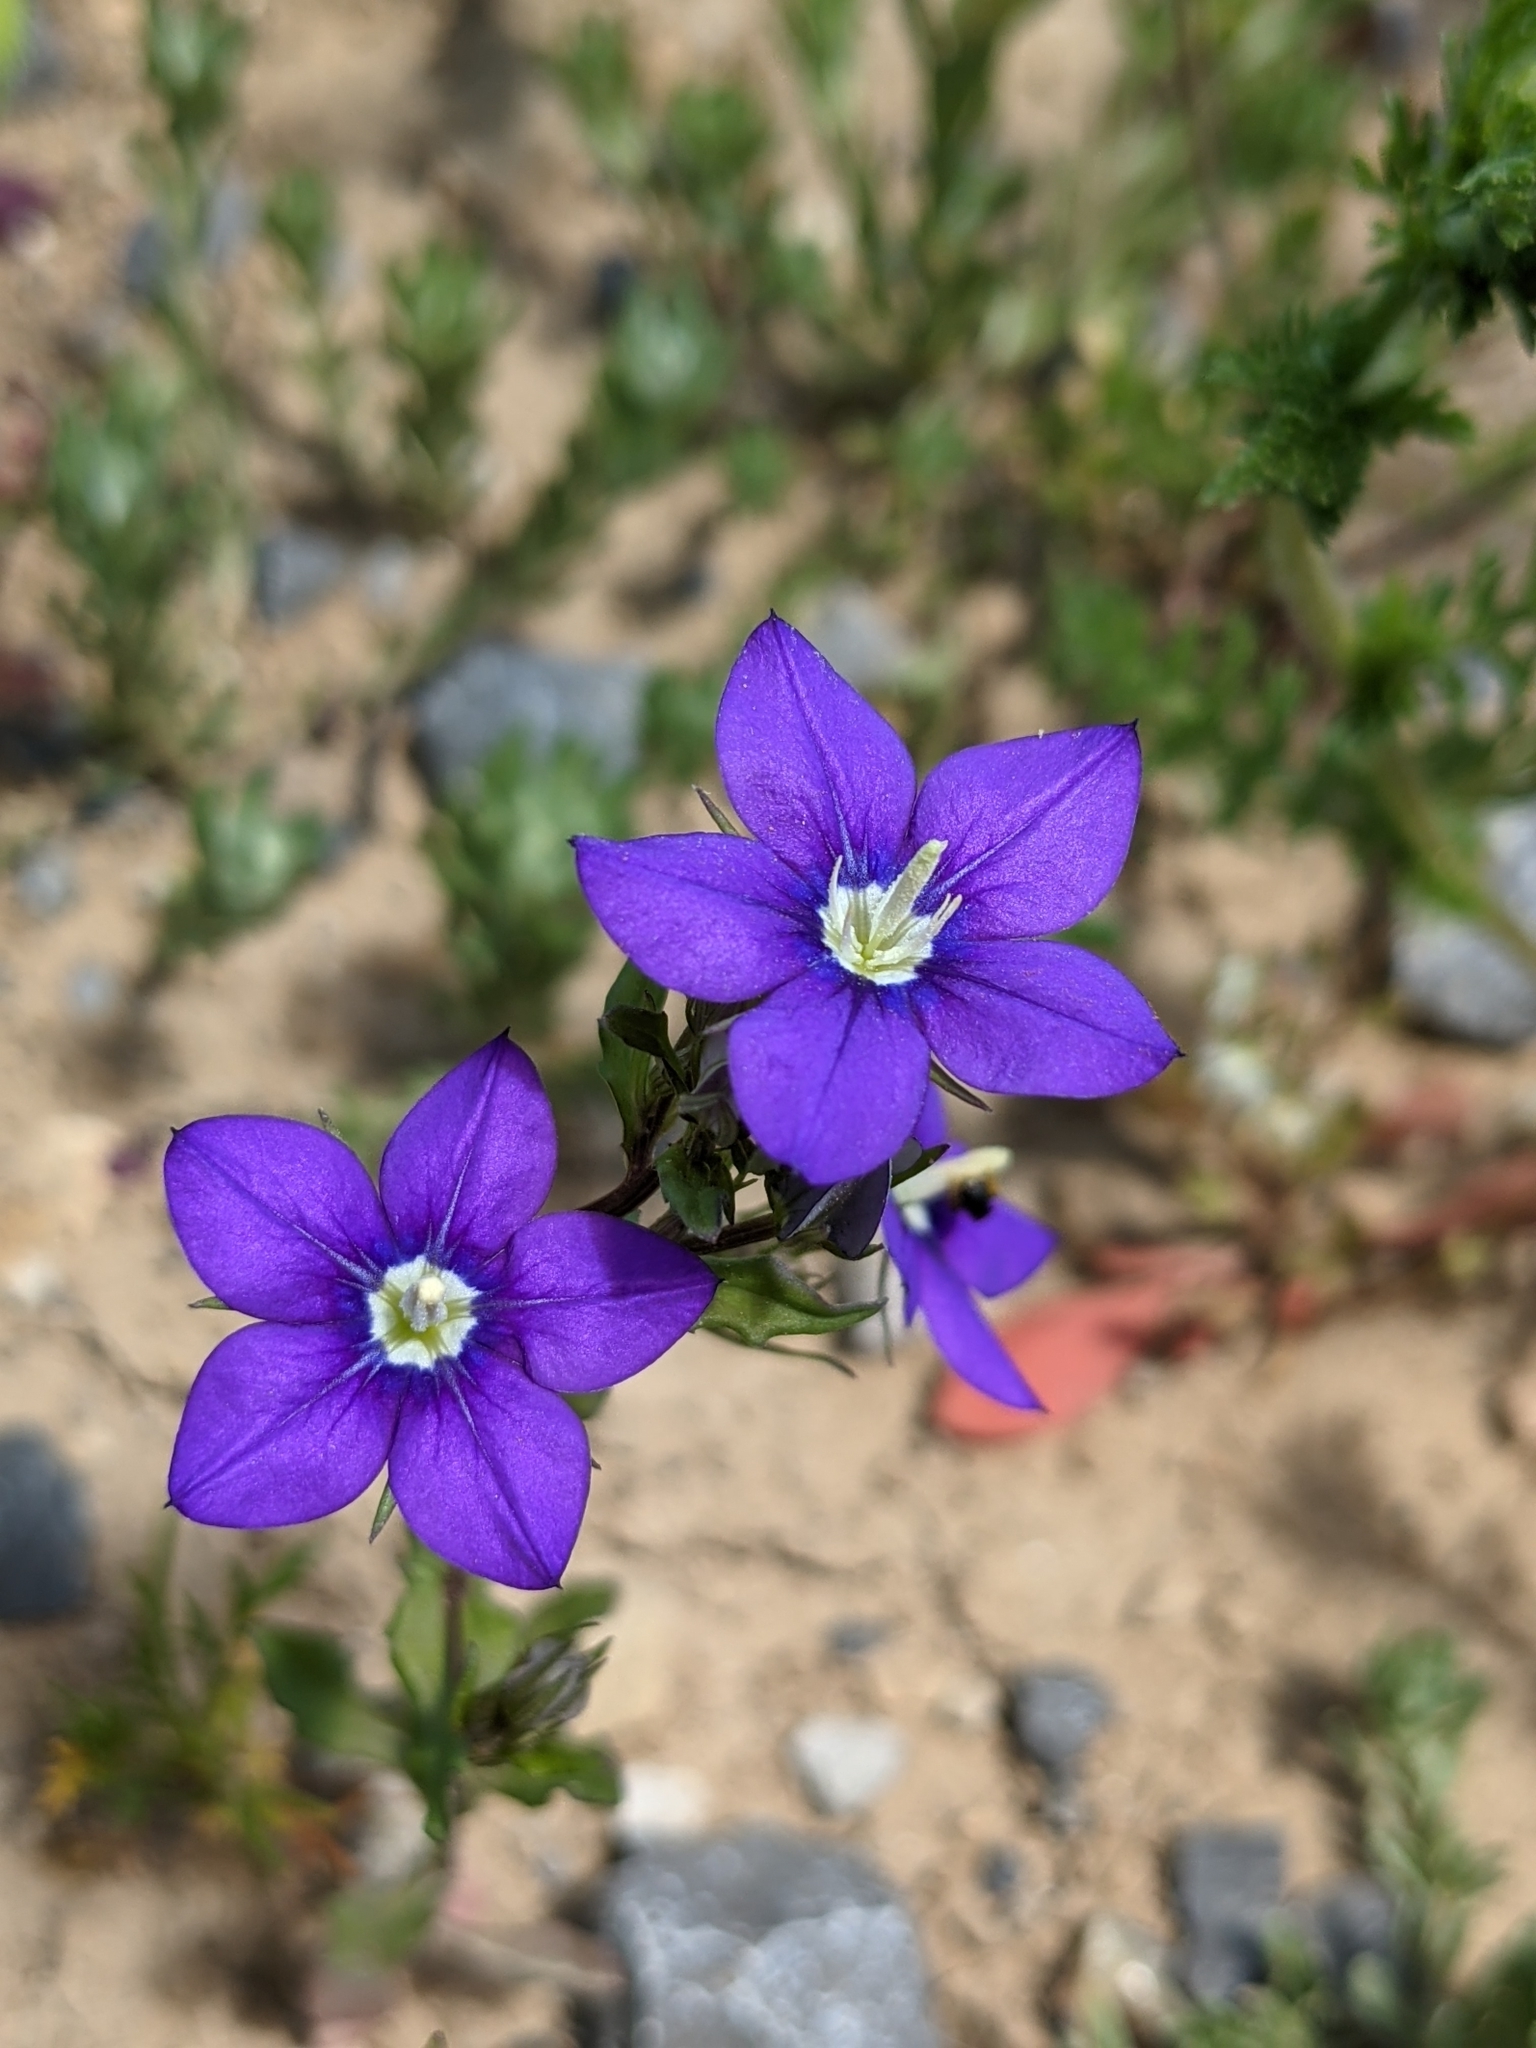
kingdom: Plantae
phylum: Tracheophyta
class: Magnoliopsida
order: Asterales
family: Campanulaceae
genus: Legousia
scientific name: Legousia speculum-veneris
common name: Large venus's-looking-glass
